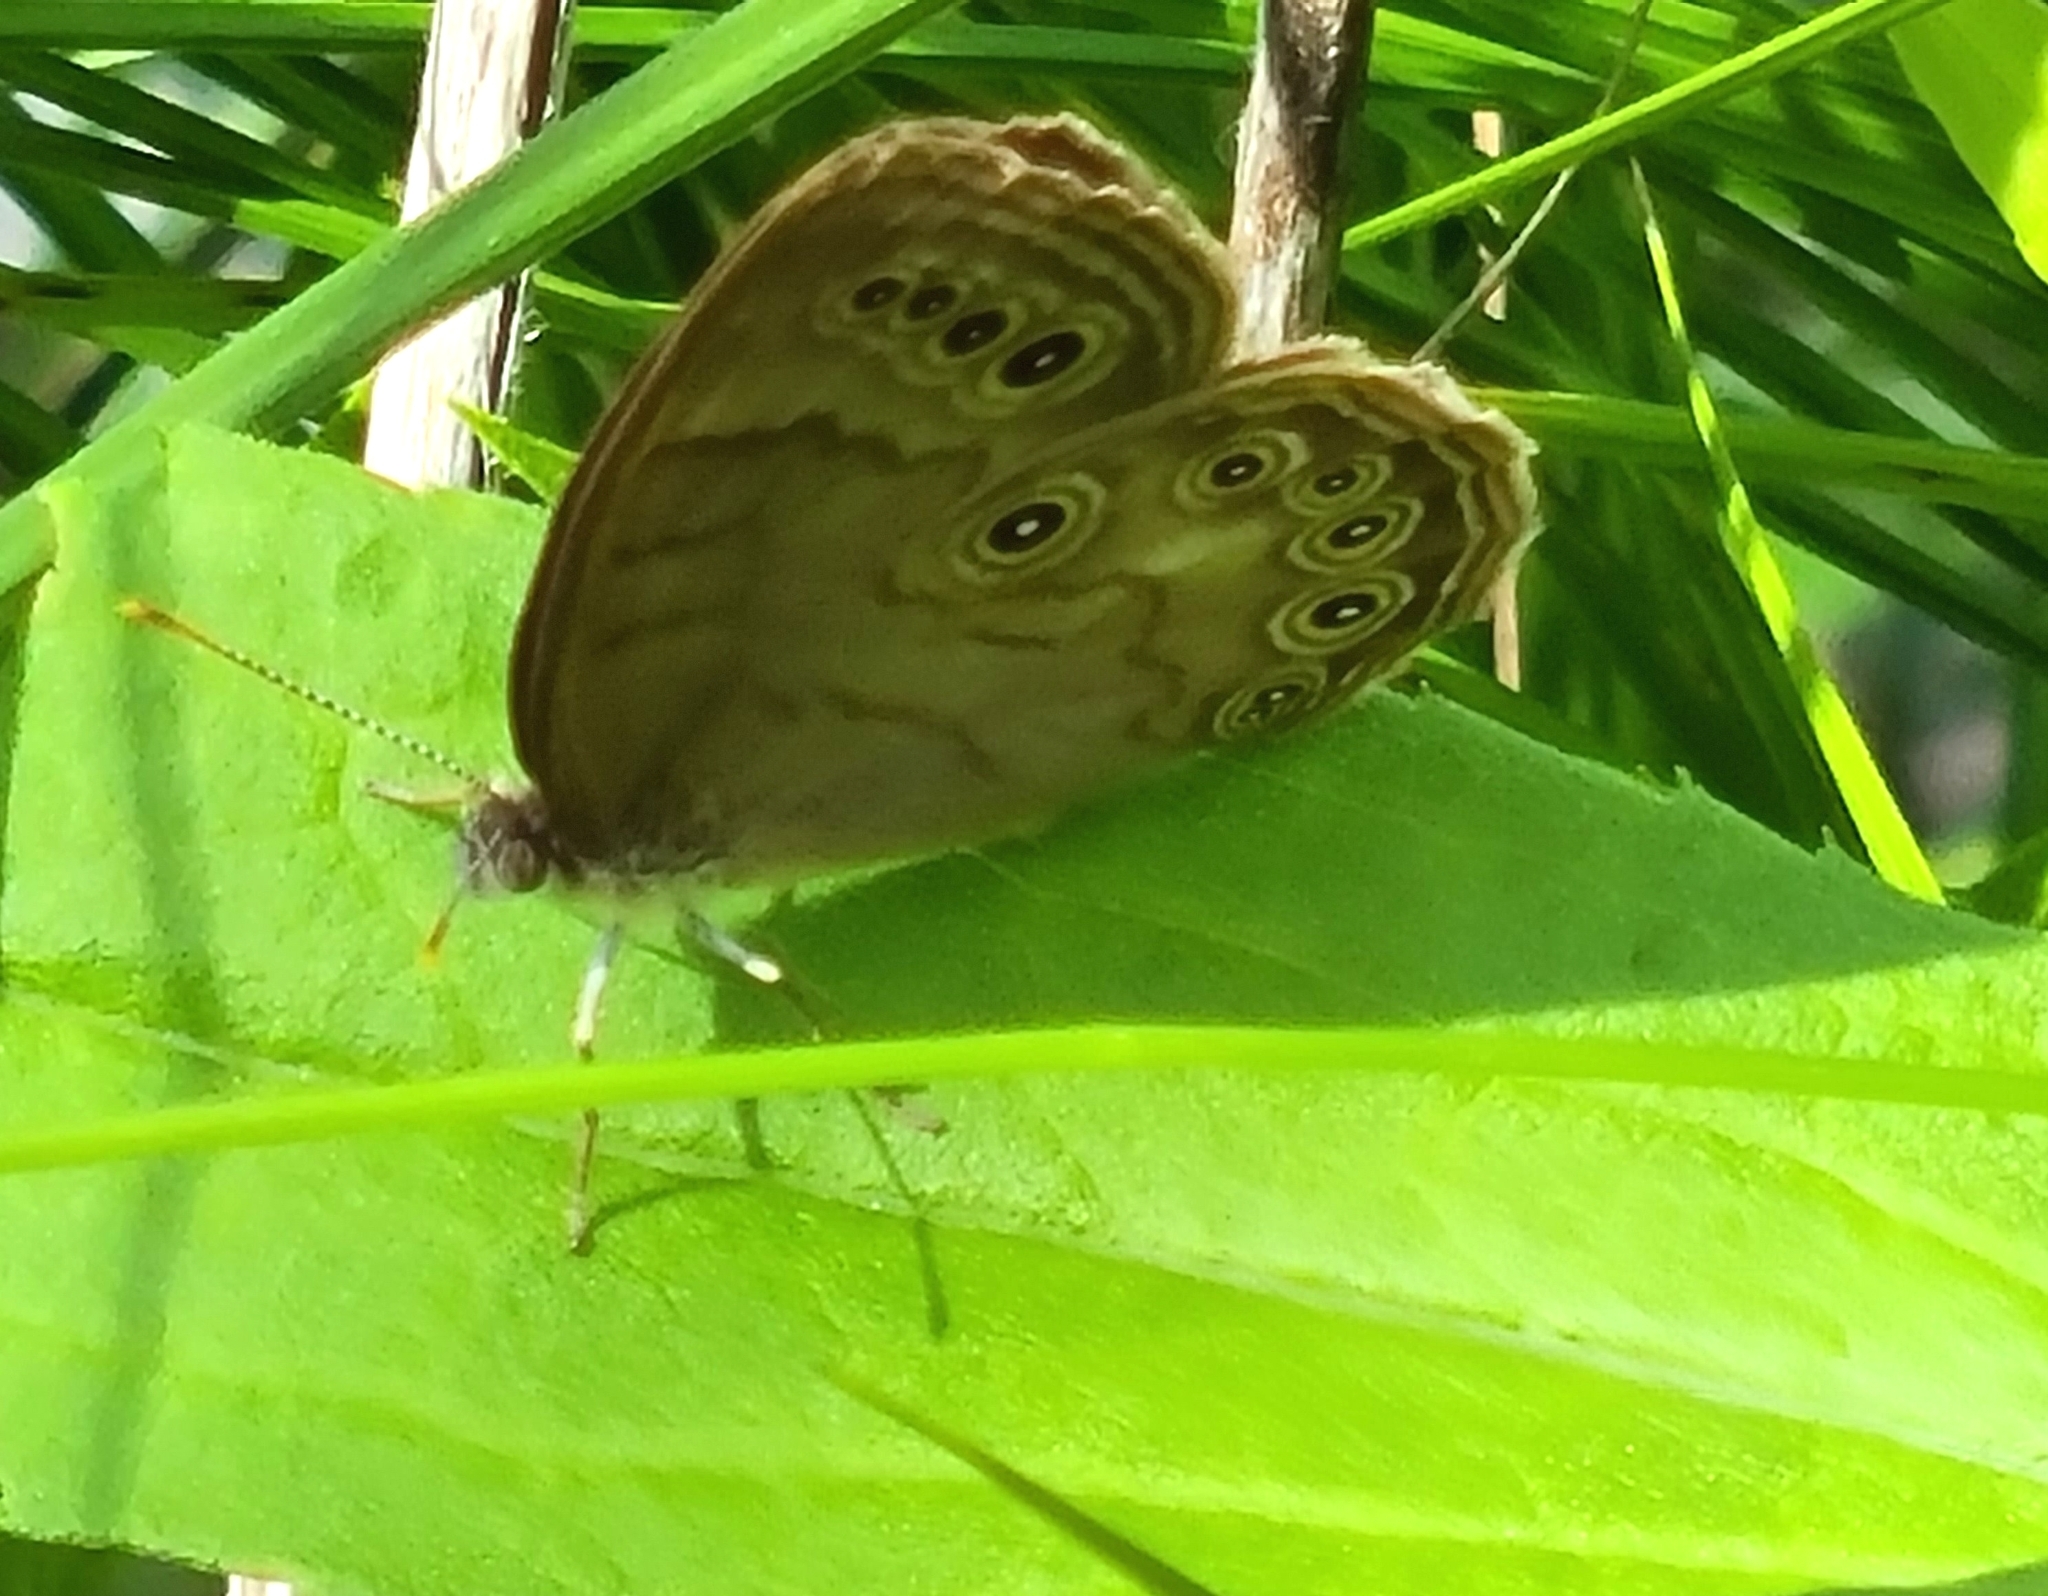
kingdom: Animalia
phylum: Arthropoda
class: Insecta
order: Lepidoptera
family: Nymphalidae
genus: Lethe
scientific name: Lethe eurydice
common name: Eyed brown
